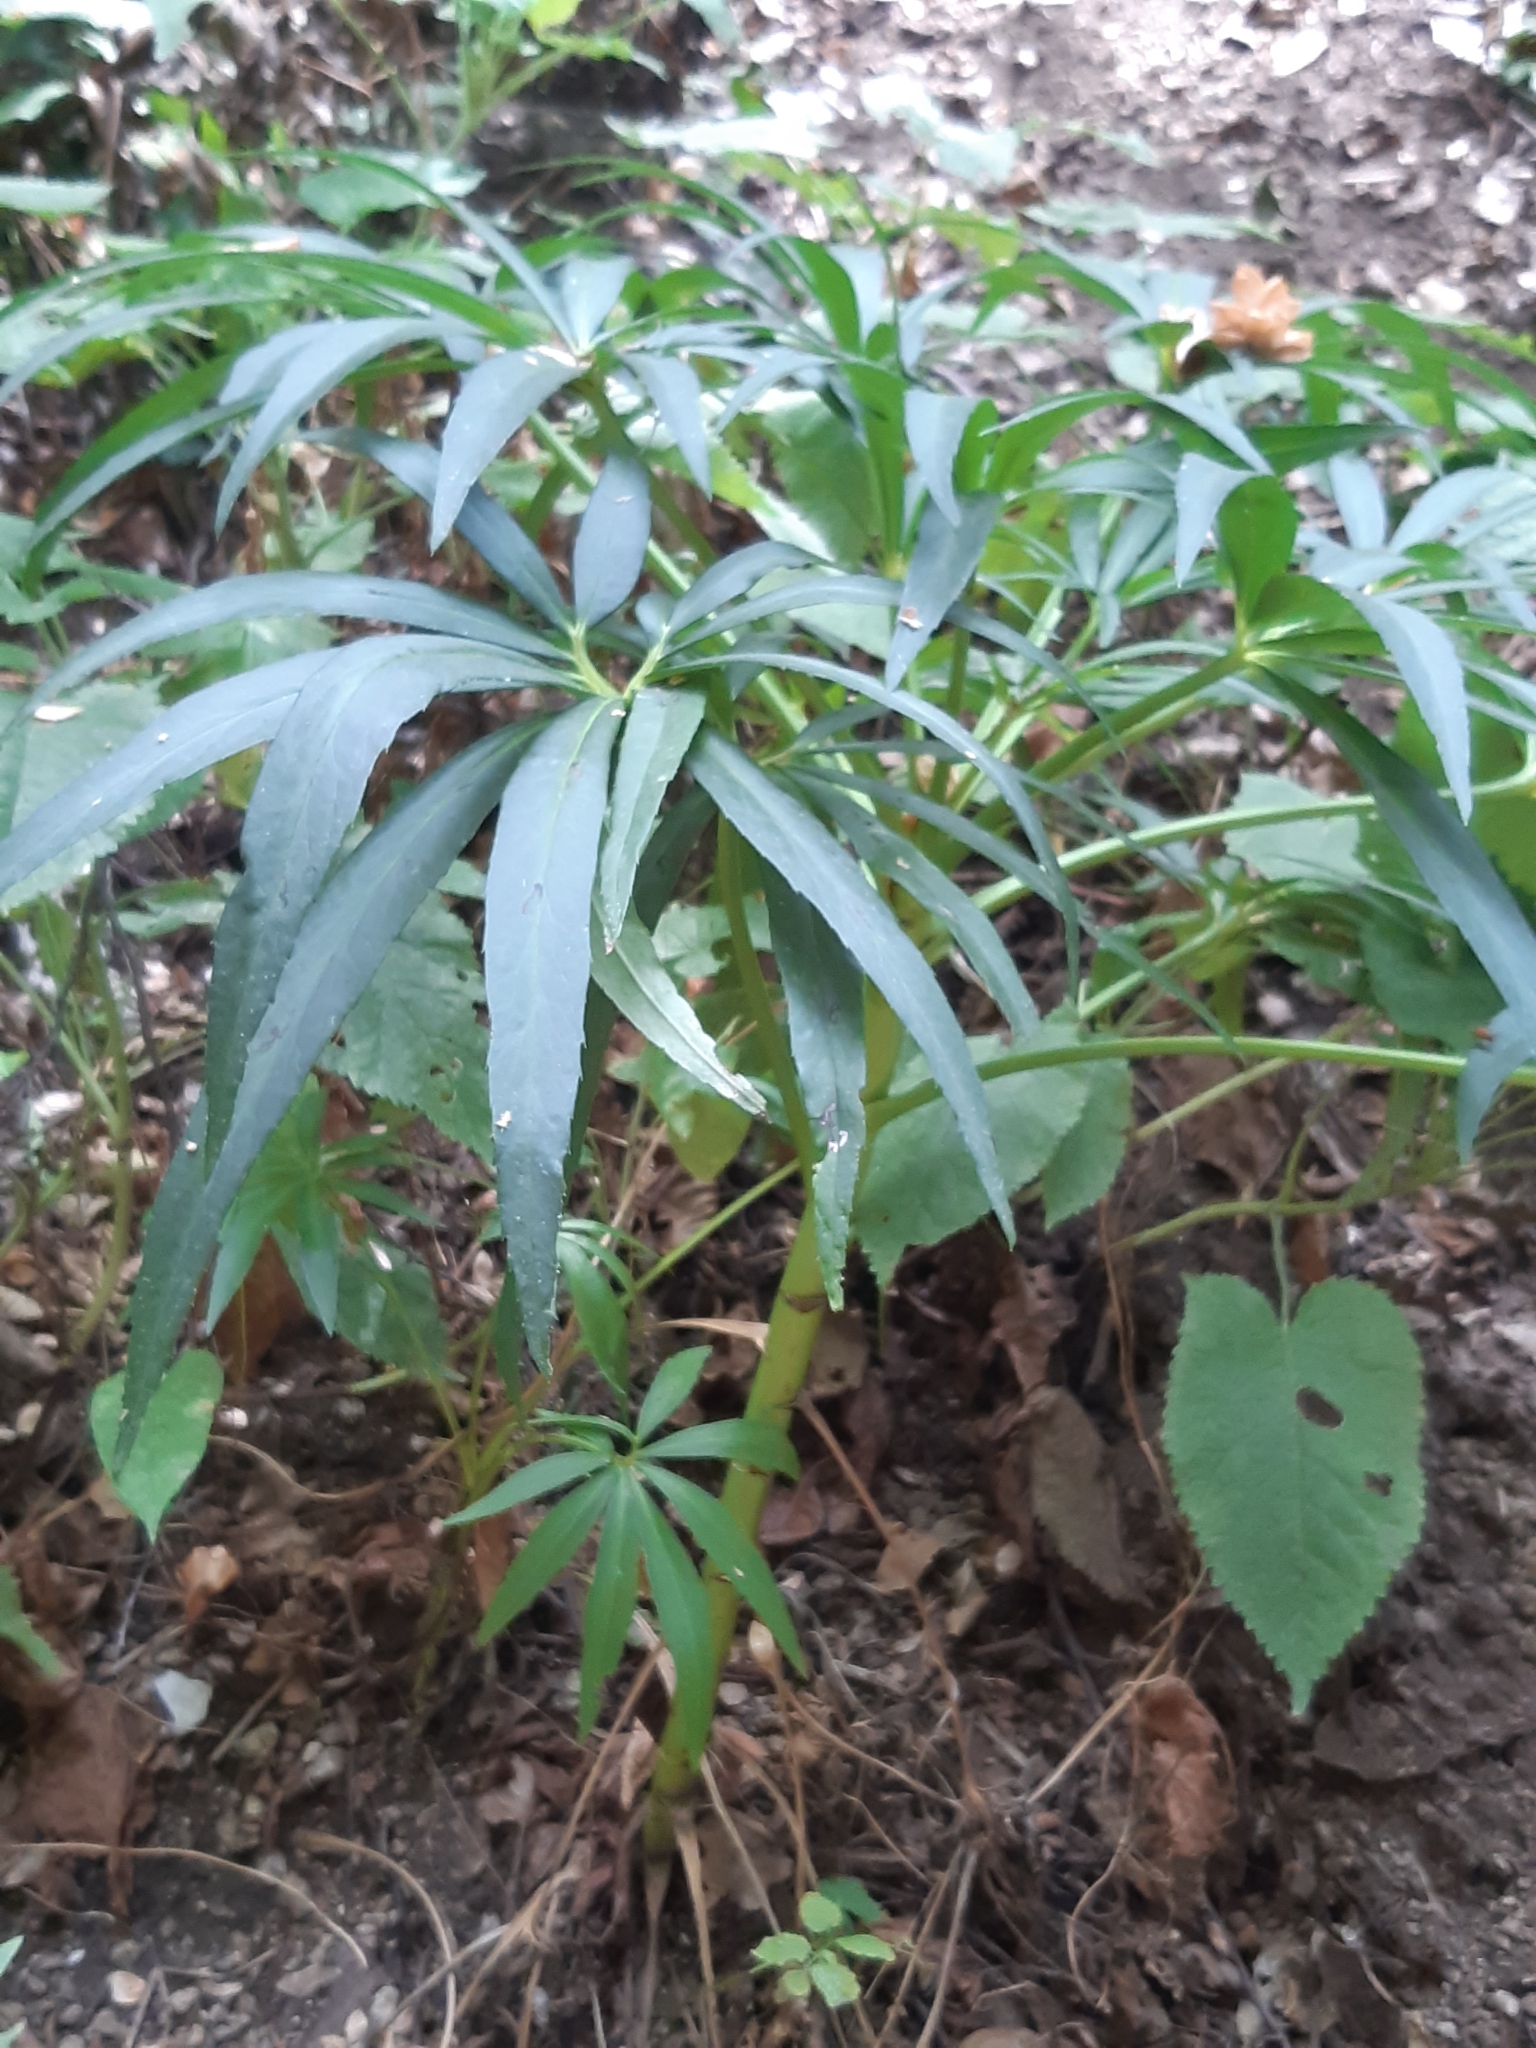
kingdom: Plantae
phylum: Tracheophyta
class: Magnoliopsida
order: Ranunculales
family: Ranunculaceae
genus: Helleborus
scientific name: Helleborus foetidus
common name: Stinking hellebore
